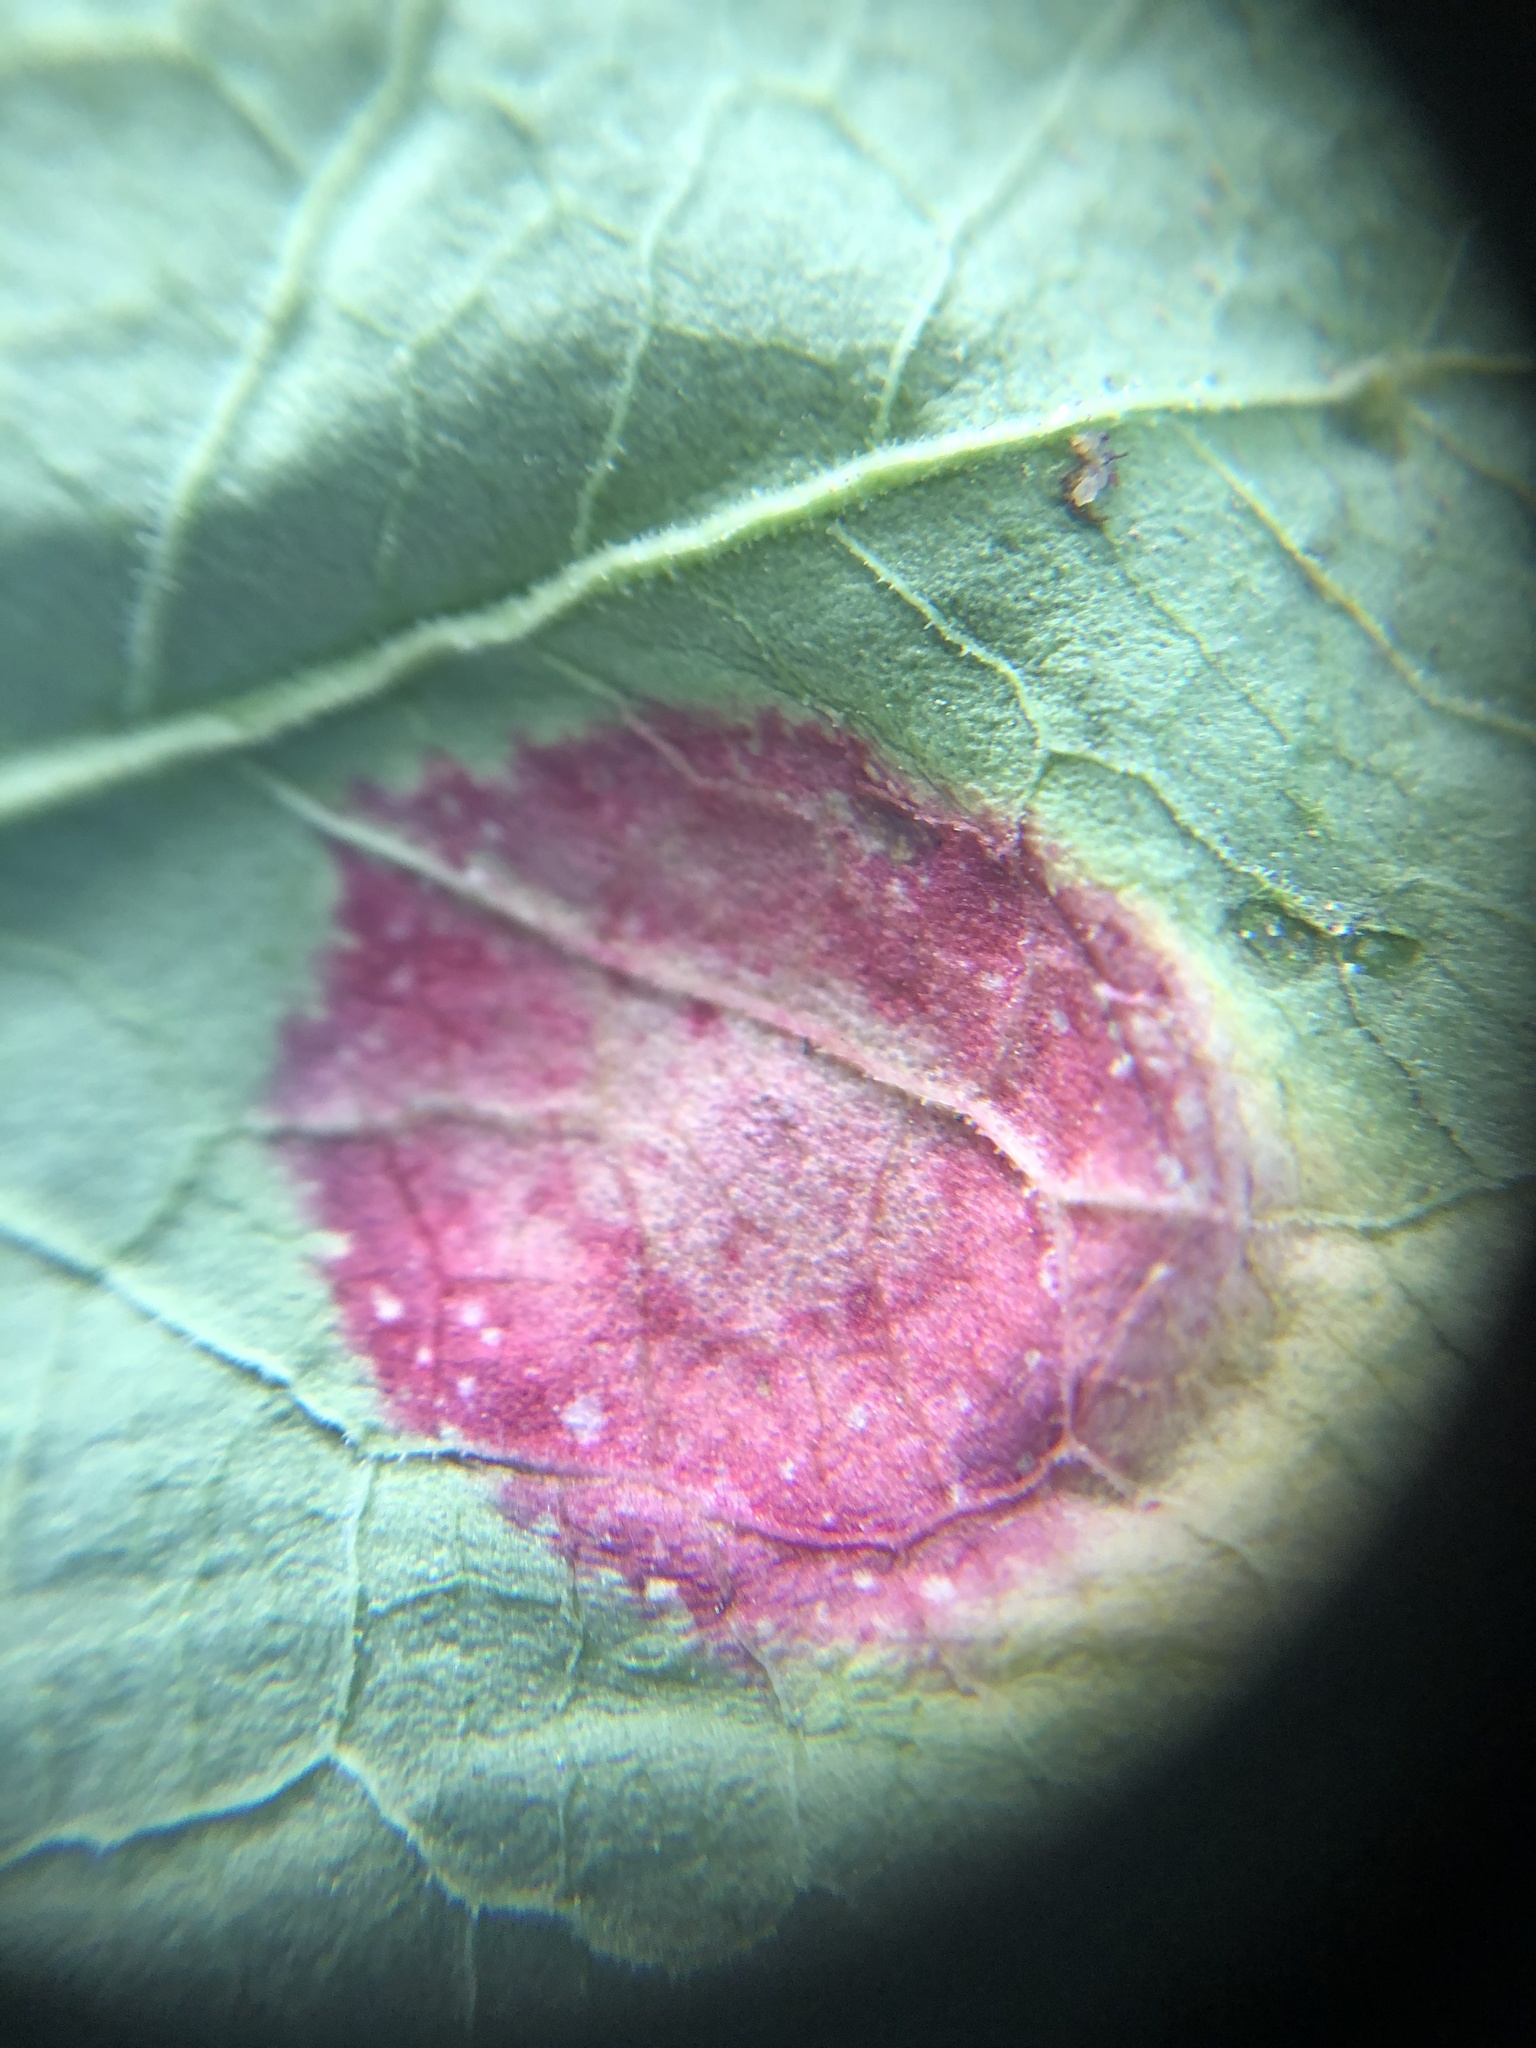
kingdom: Fungi
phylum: Basidiomycota
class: Pucciniomycetes
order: Pucciniales
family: Pucciniaceae
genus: Puccinia
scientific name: Puccinia phragmitis
